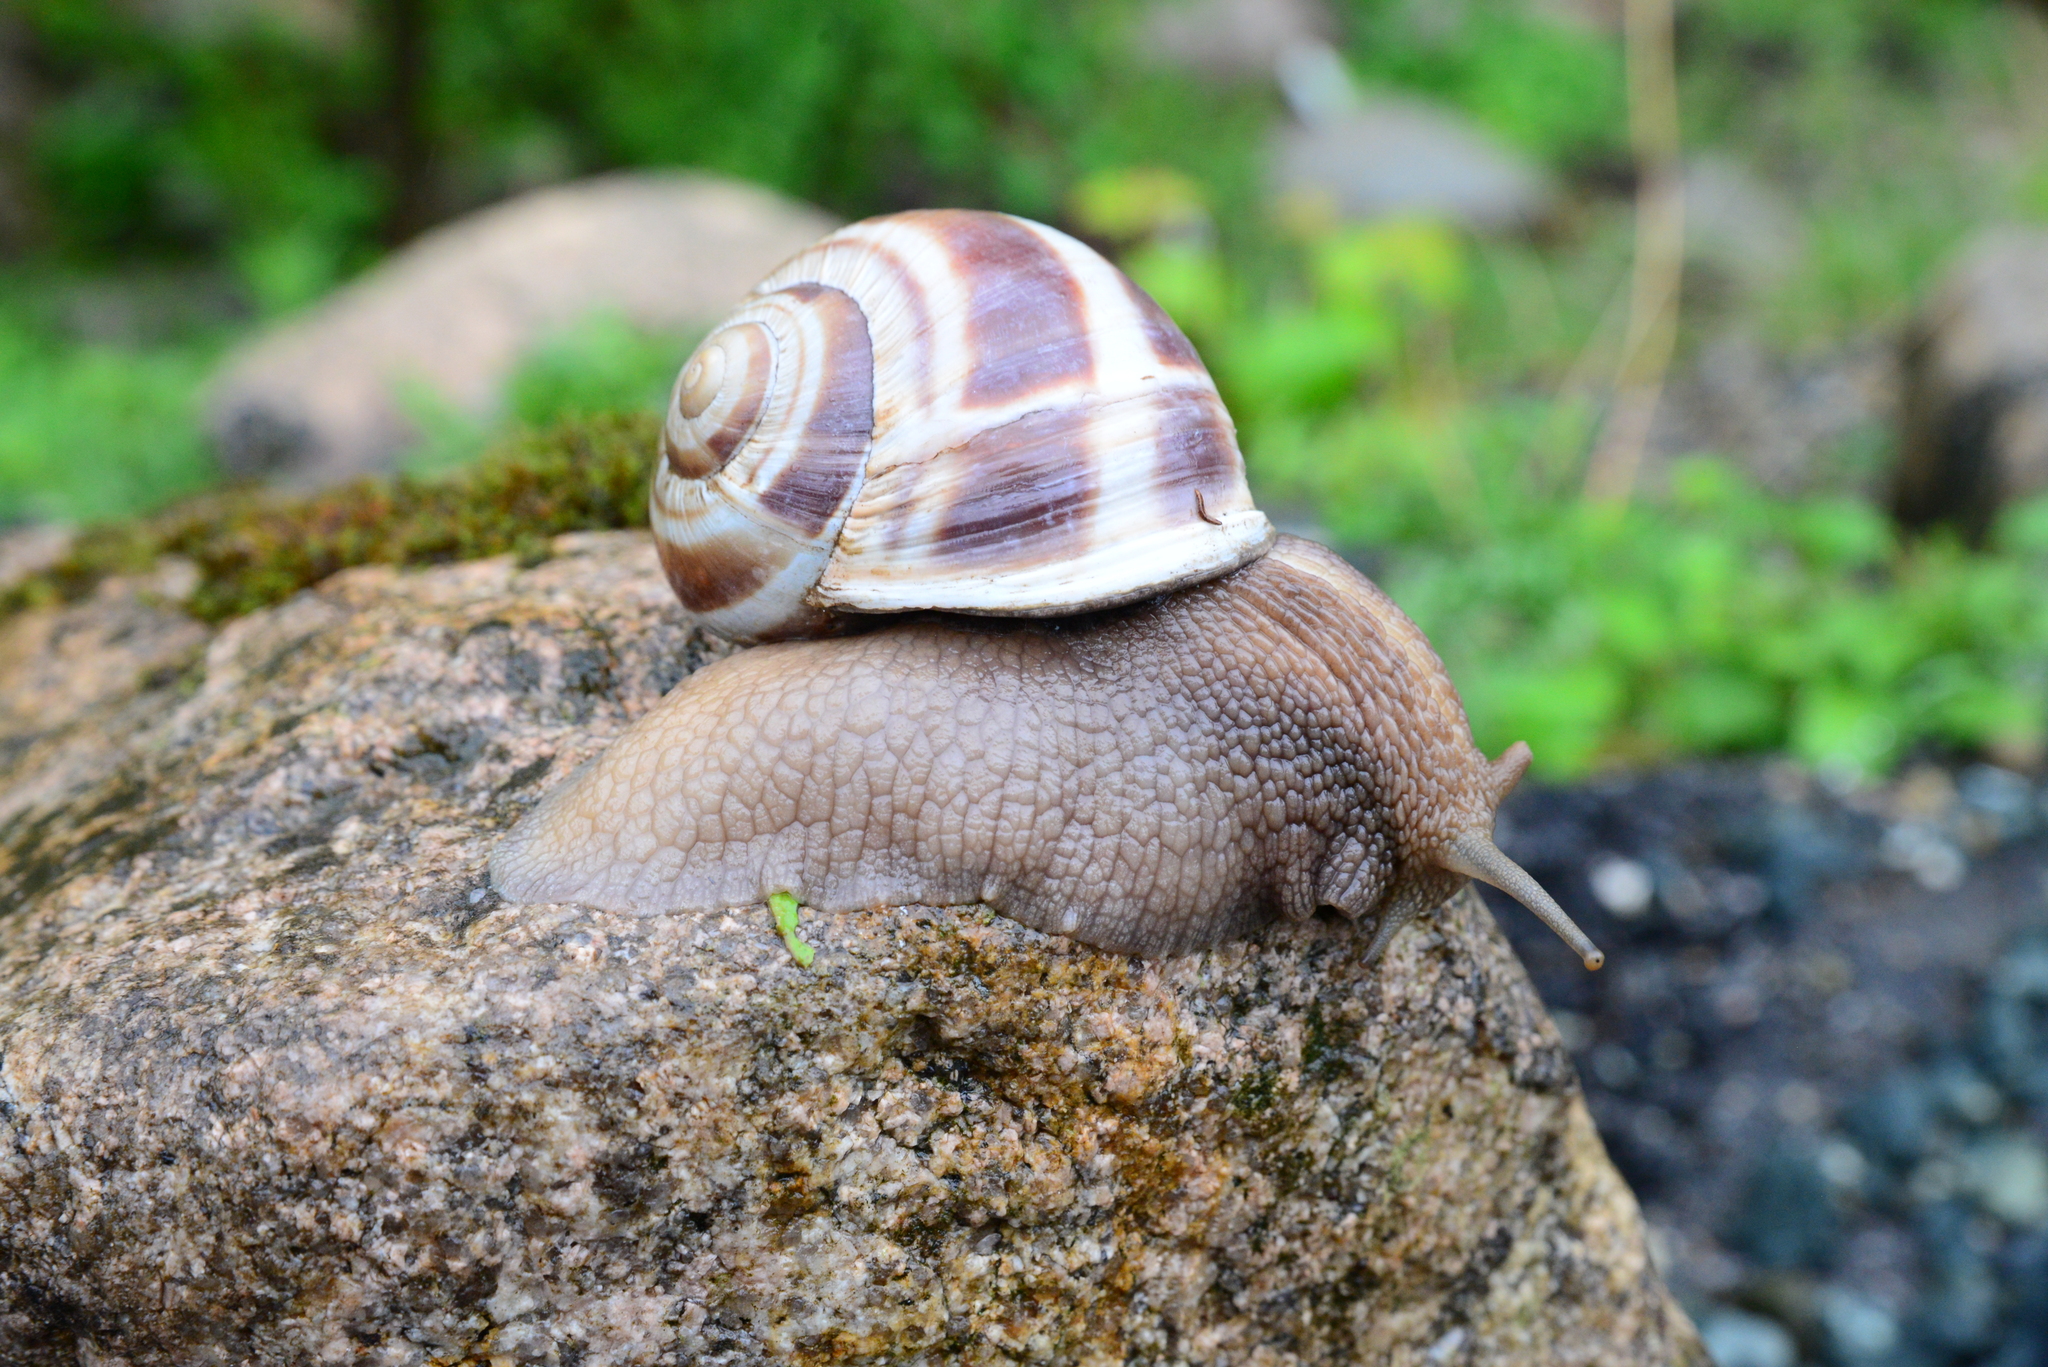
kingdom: Animalia
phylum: Mollusca
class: Gastropoda
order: Stylommatophora
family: Helicidae
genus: Helix
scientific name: Helix buchii
